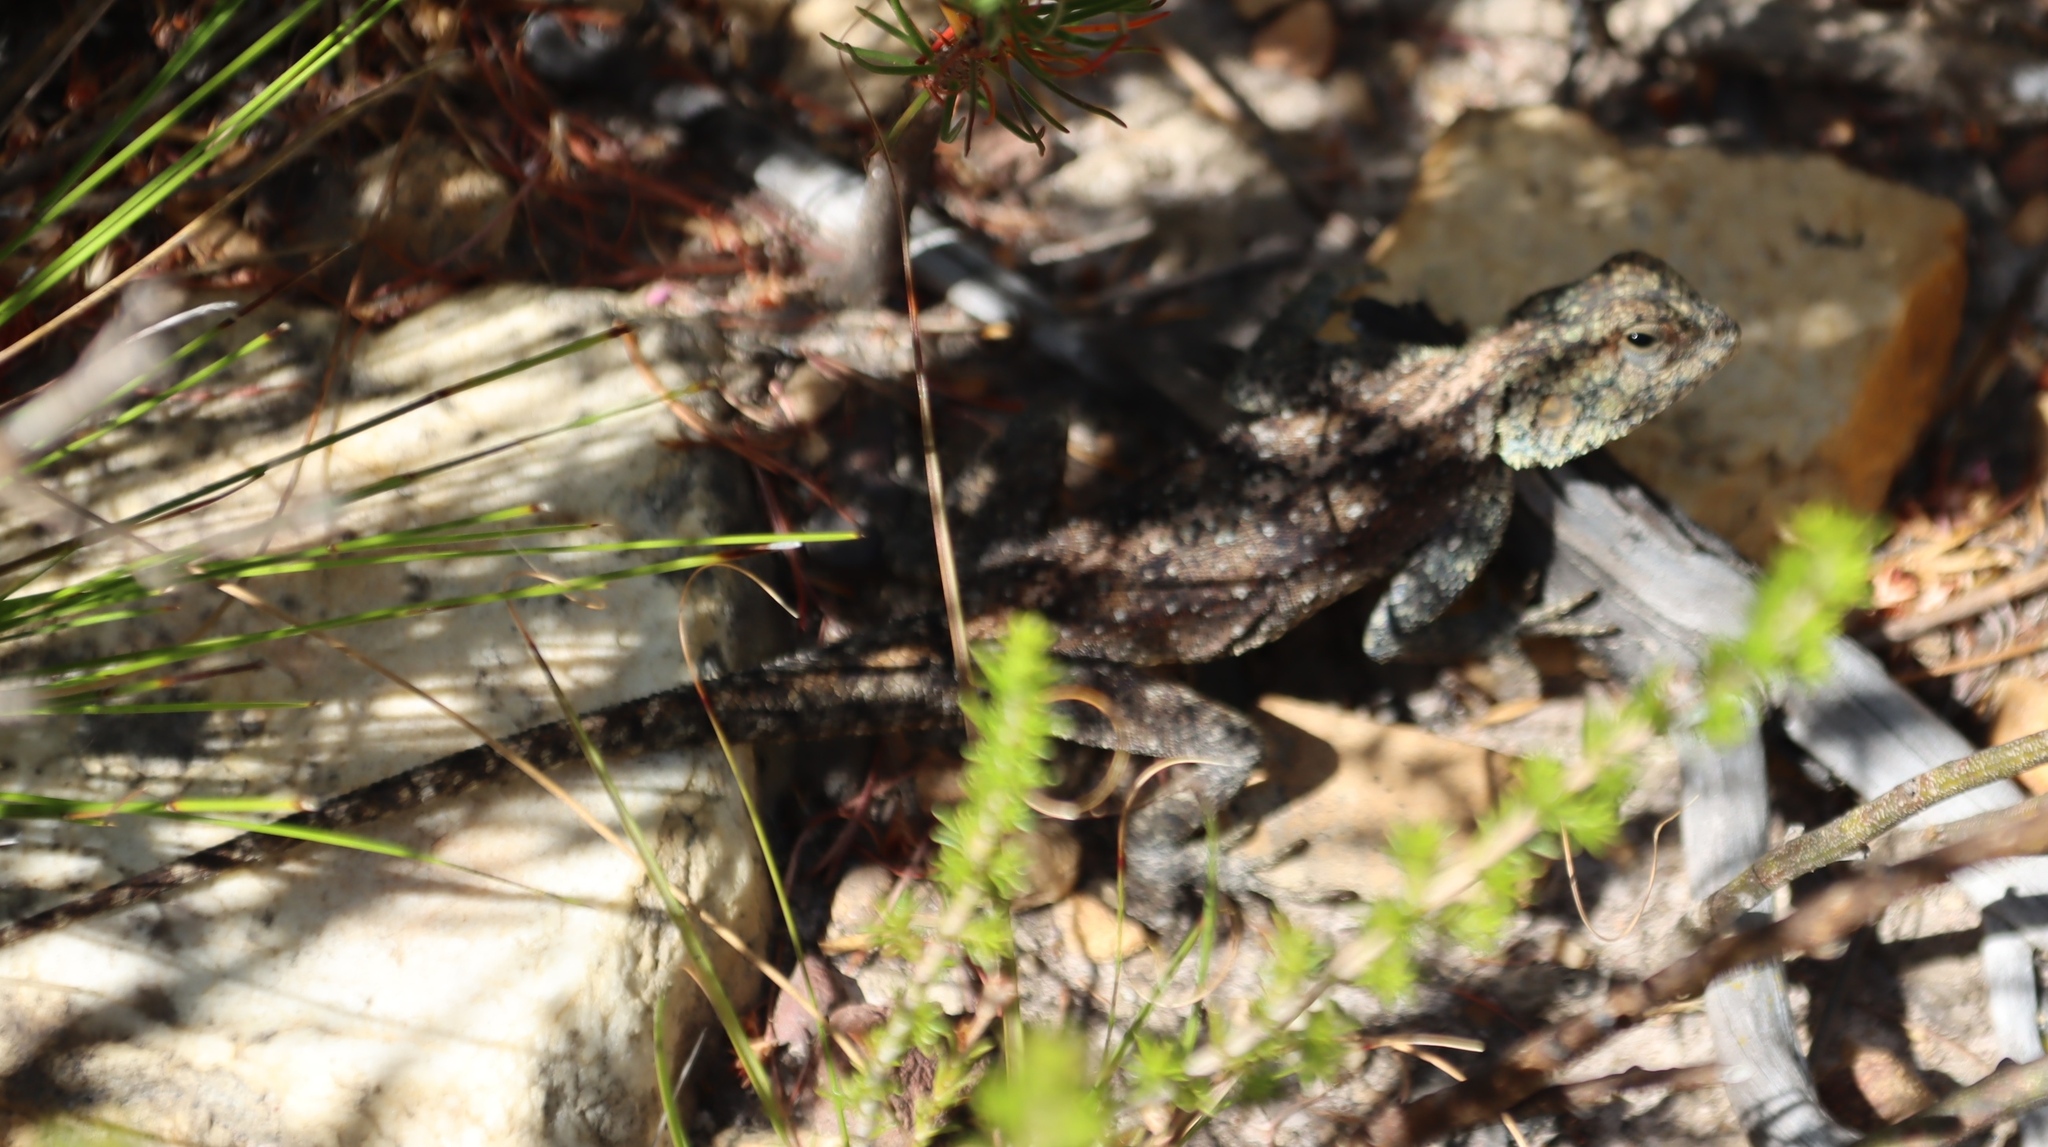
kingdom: Animalia
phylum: Chordata
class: Squamata
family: Agamidae
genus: Agama
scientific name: Agama atra
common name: Southern african rock agama
